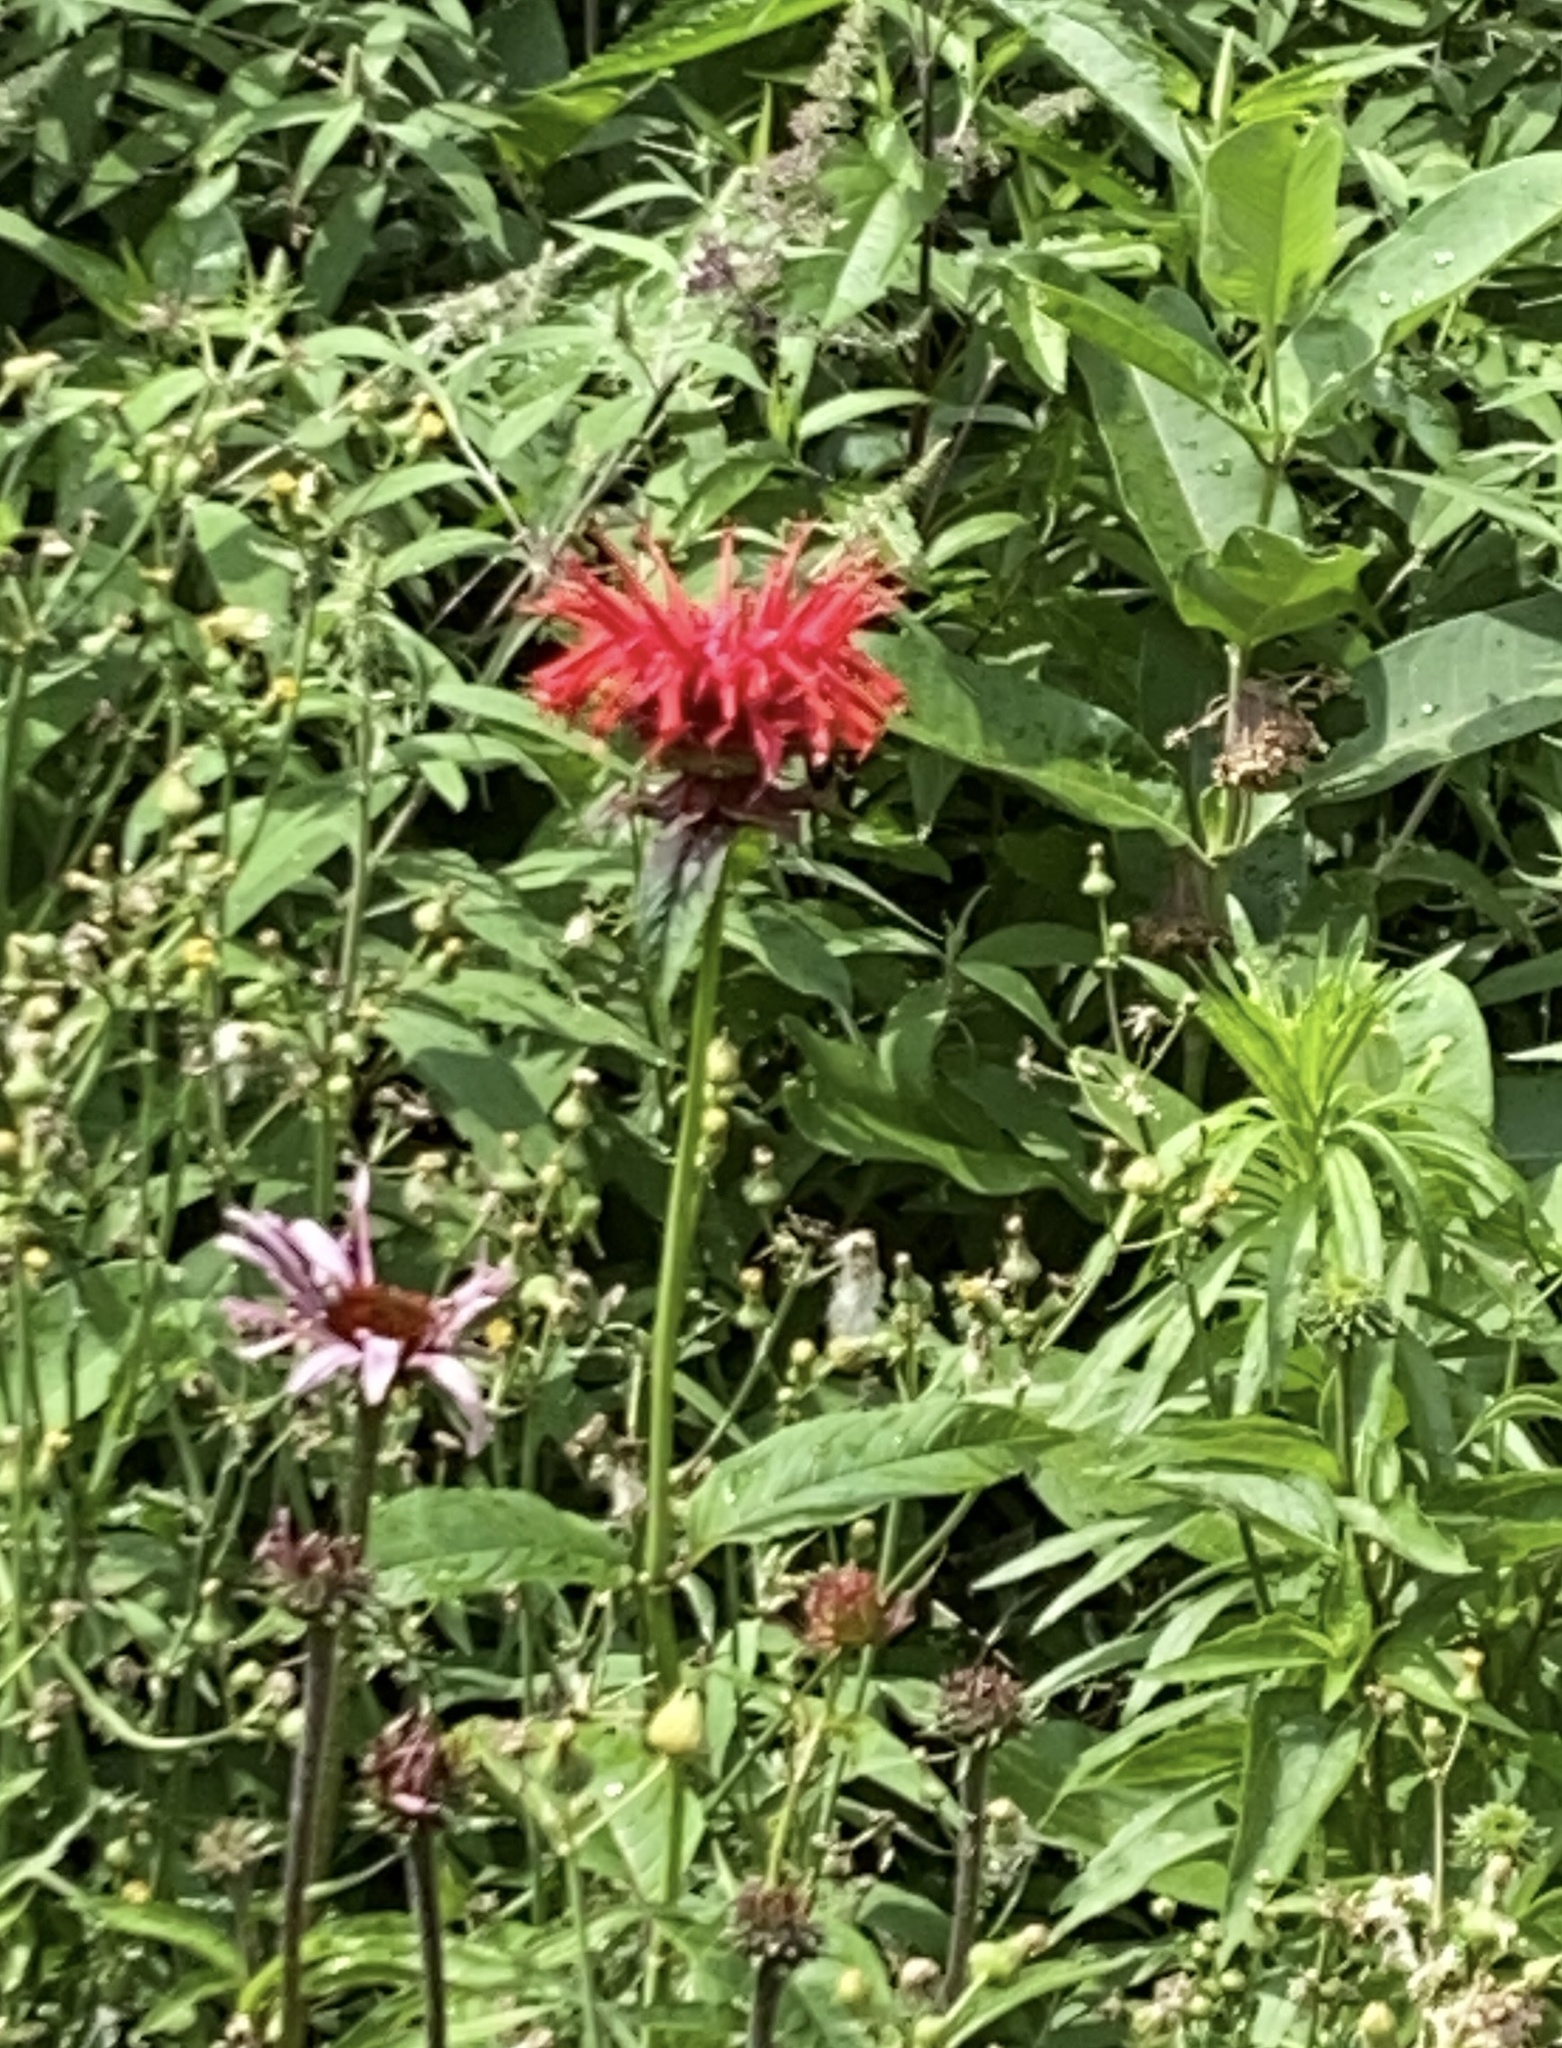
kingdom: Plantae
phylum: Tracheophyta
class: Magnoliopsida
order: Lamiales
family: Lamiaceae
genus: Monarda
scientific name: Monarda didyma
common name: Beebalm
